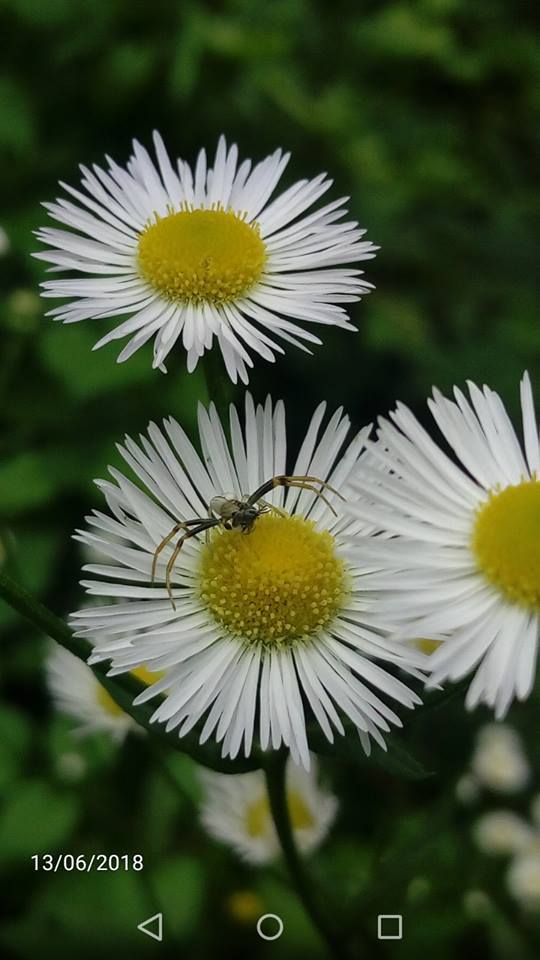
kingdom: Animalia
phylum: Arthropoda
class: Arachnida
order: Araneae
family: Thomisidae
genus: Misumena
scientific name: Misumena vatia
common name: Goldenrod crab spider
